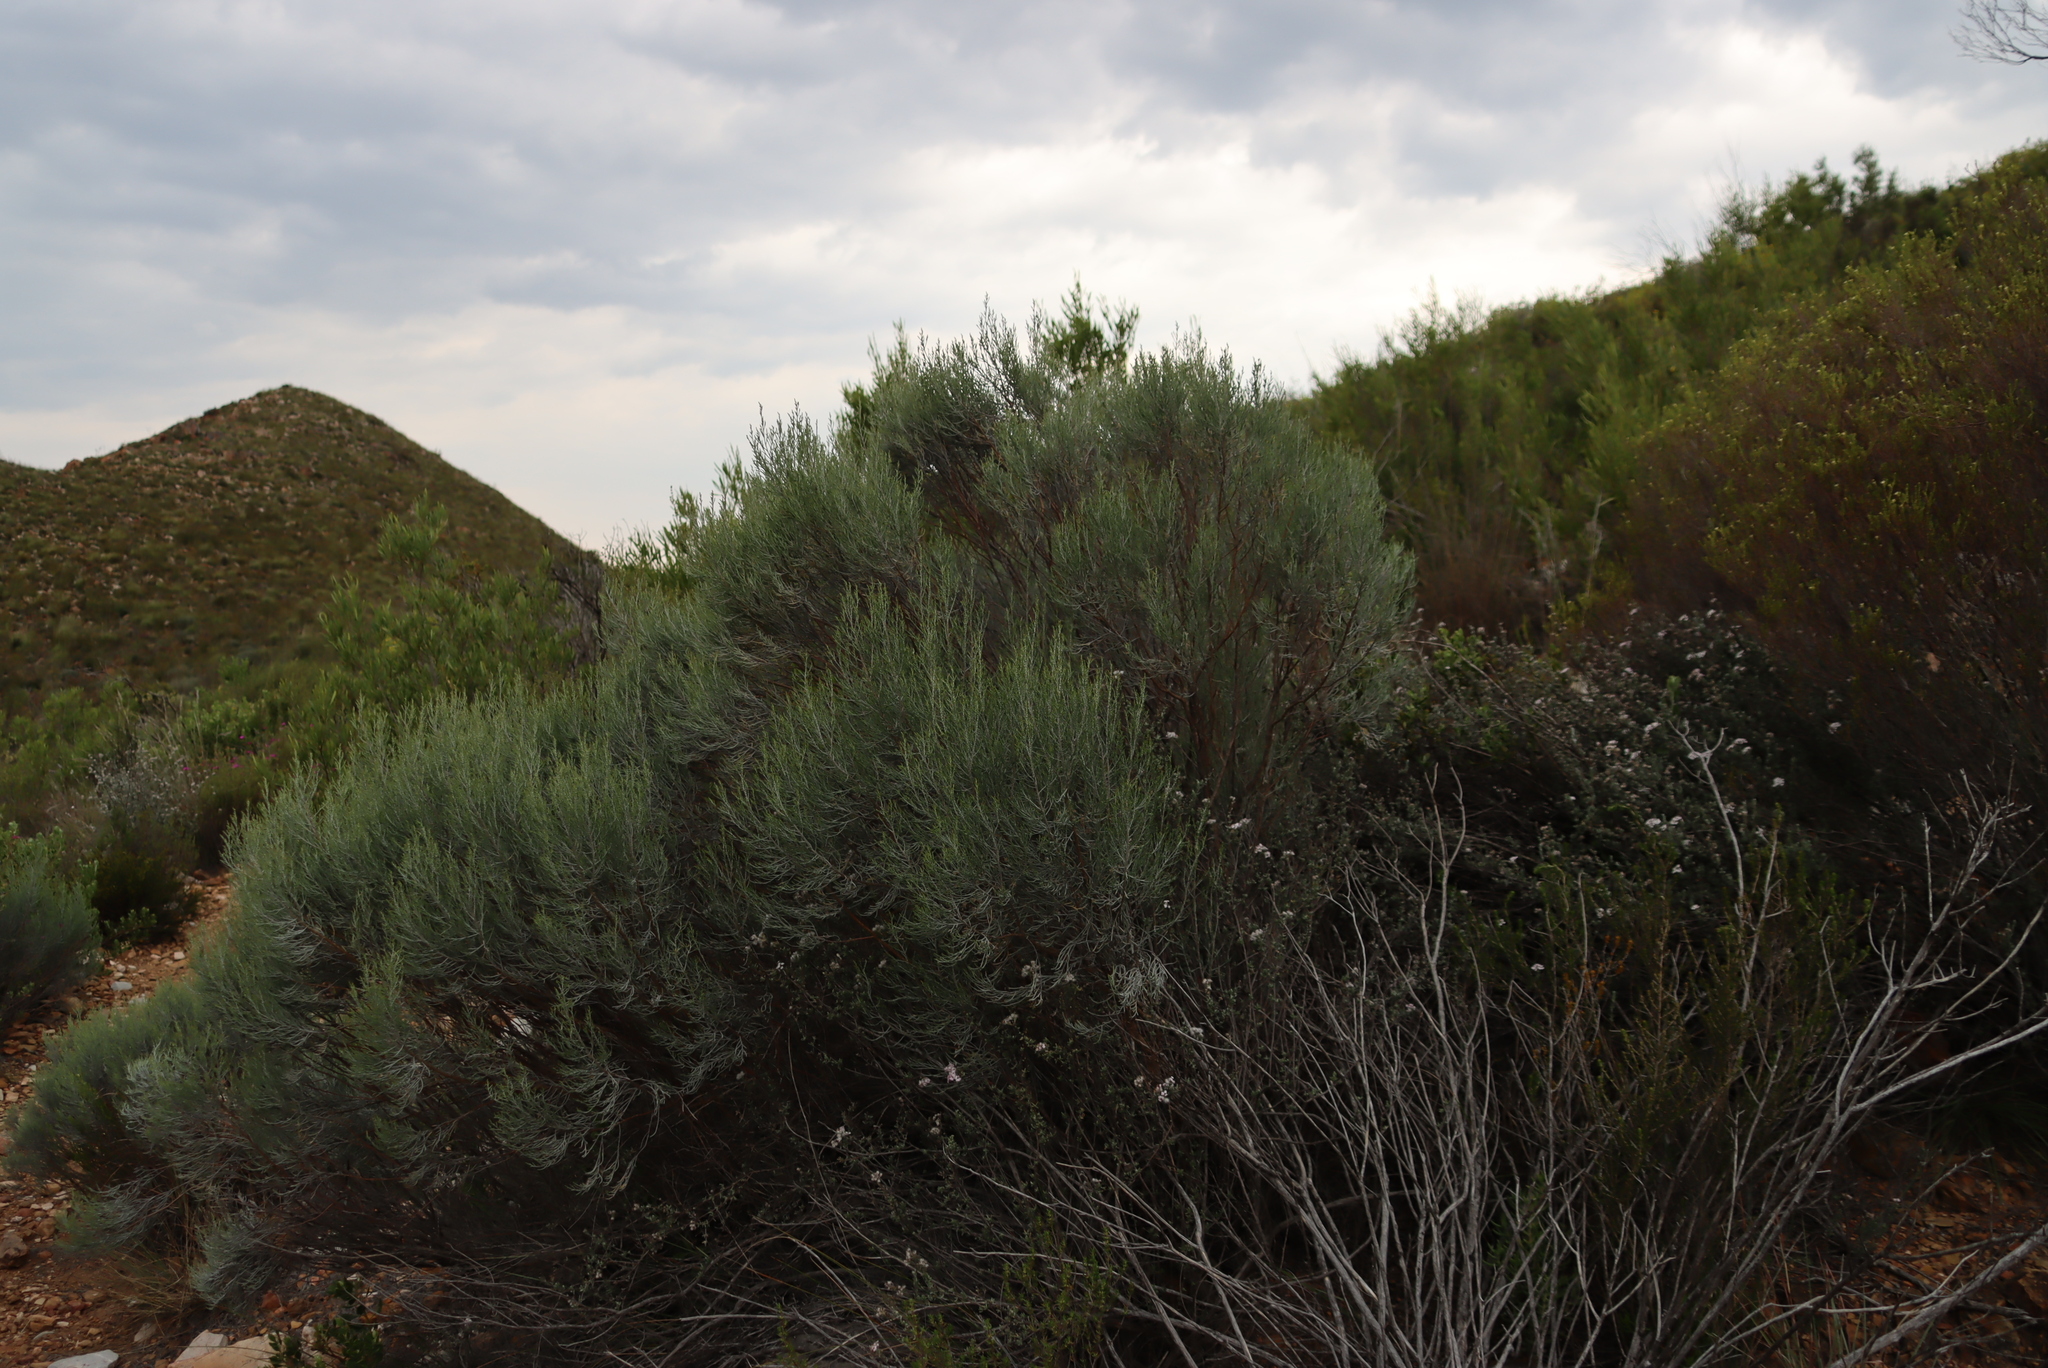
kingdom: Plantae
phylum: Tracheophyta
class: Magnoliopsida
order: Asterales
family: Asteraceae
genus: Dicerothamnus
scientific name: Dicerothamnus rhinocerotis
